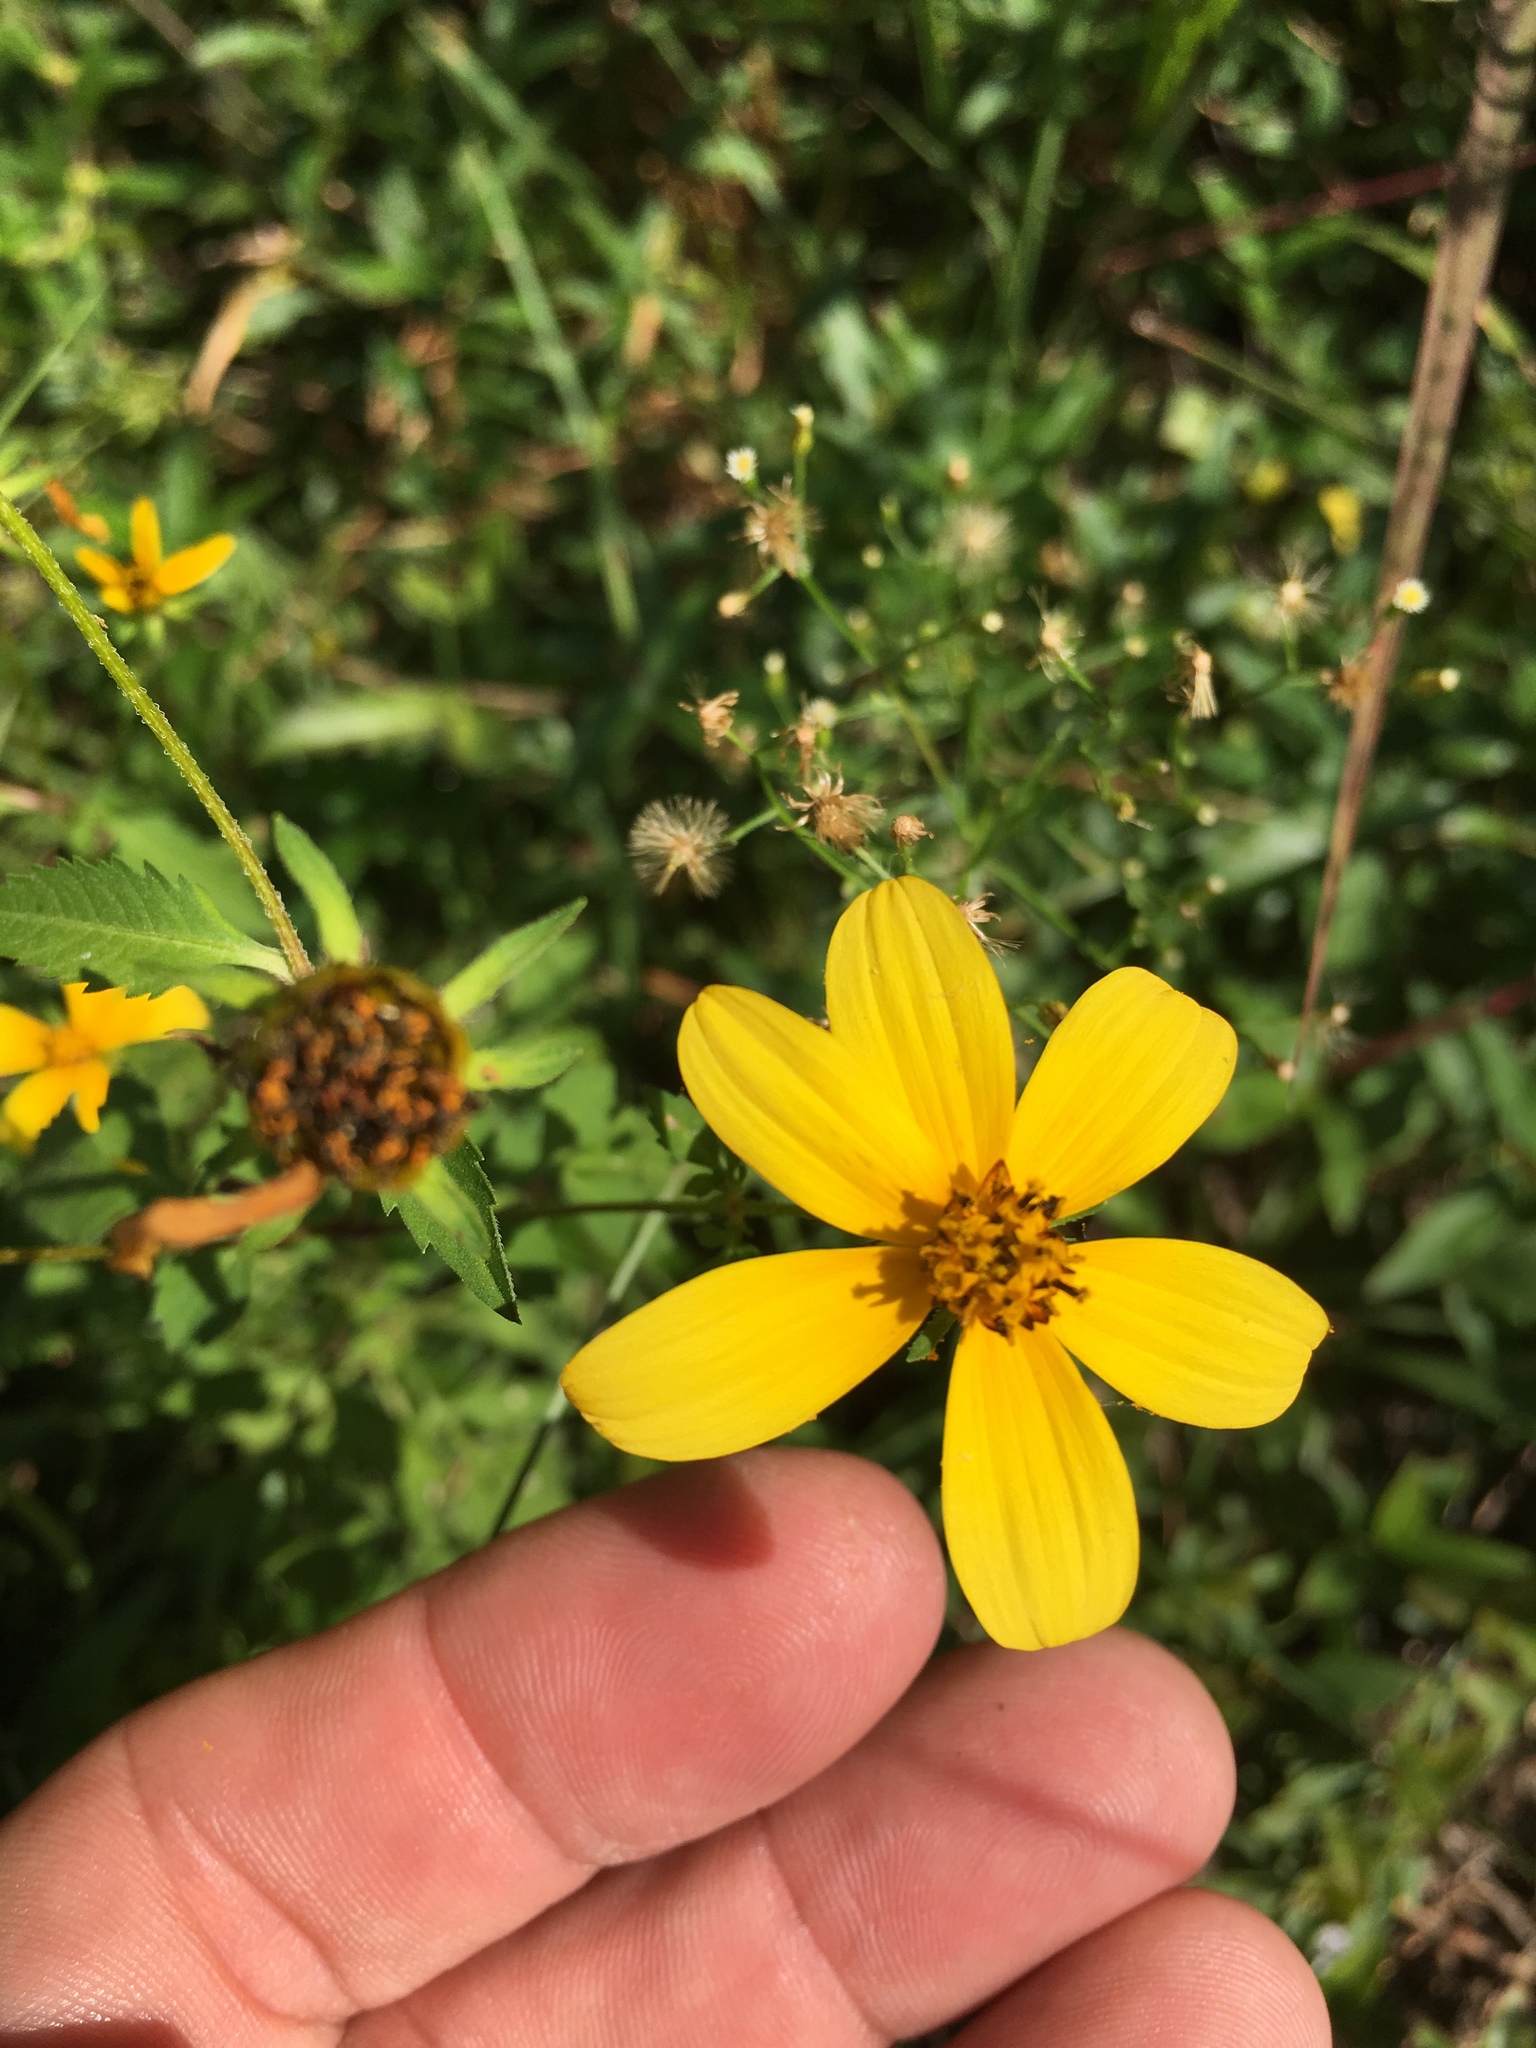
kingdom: Plantae
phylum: Tracheophyta
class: Magnoliopsida
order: Asterales
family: Asteraceae
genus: Bidens
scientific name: Bidens aristosa
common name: Western tickseed
